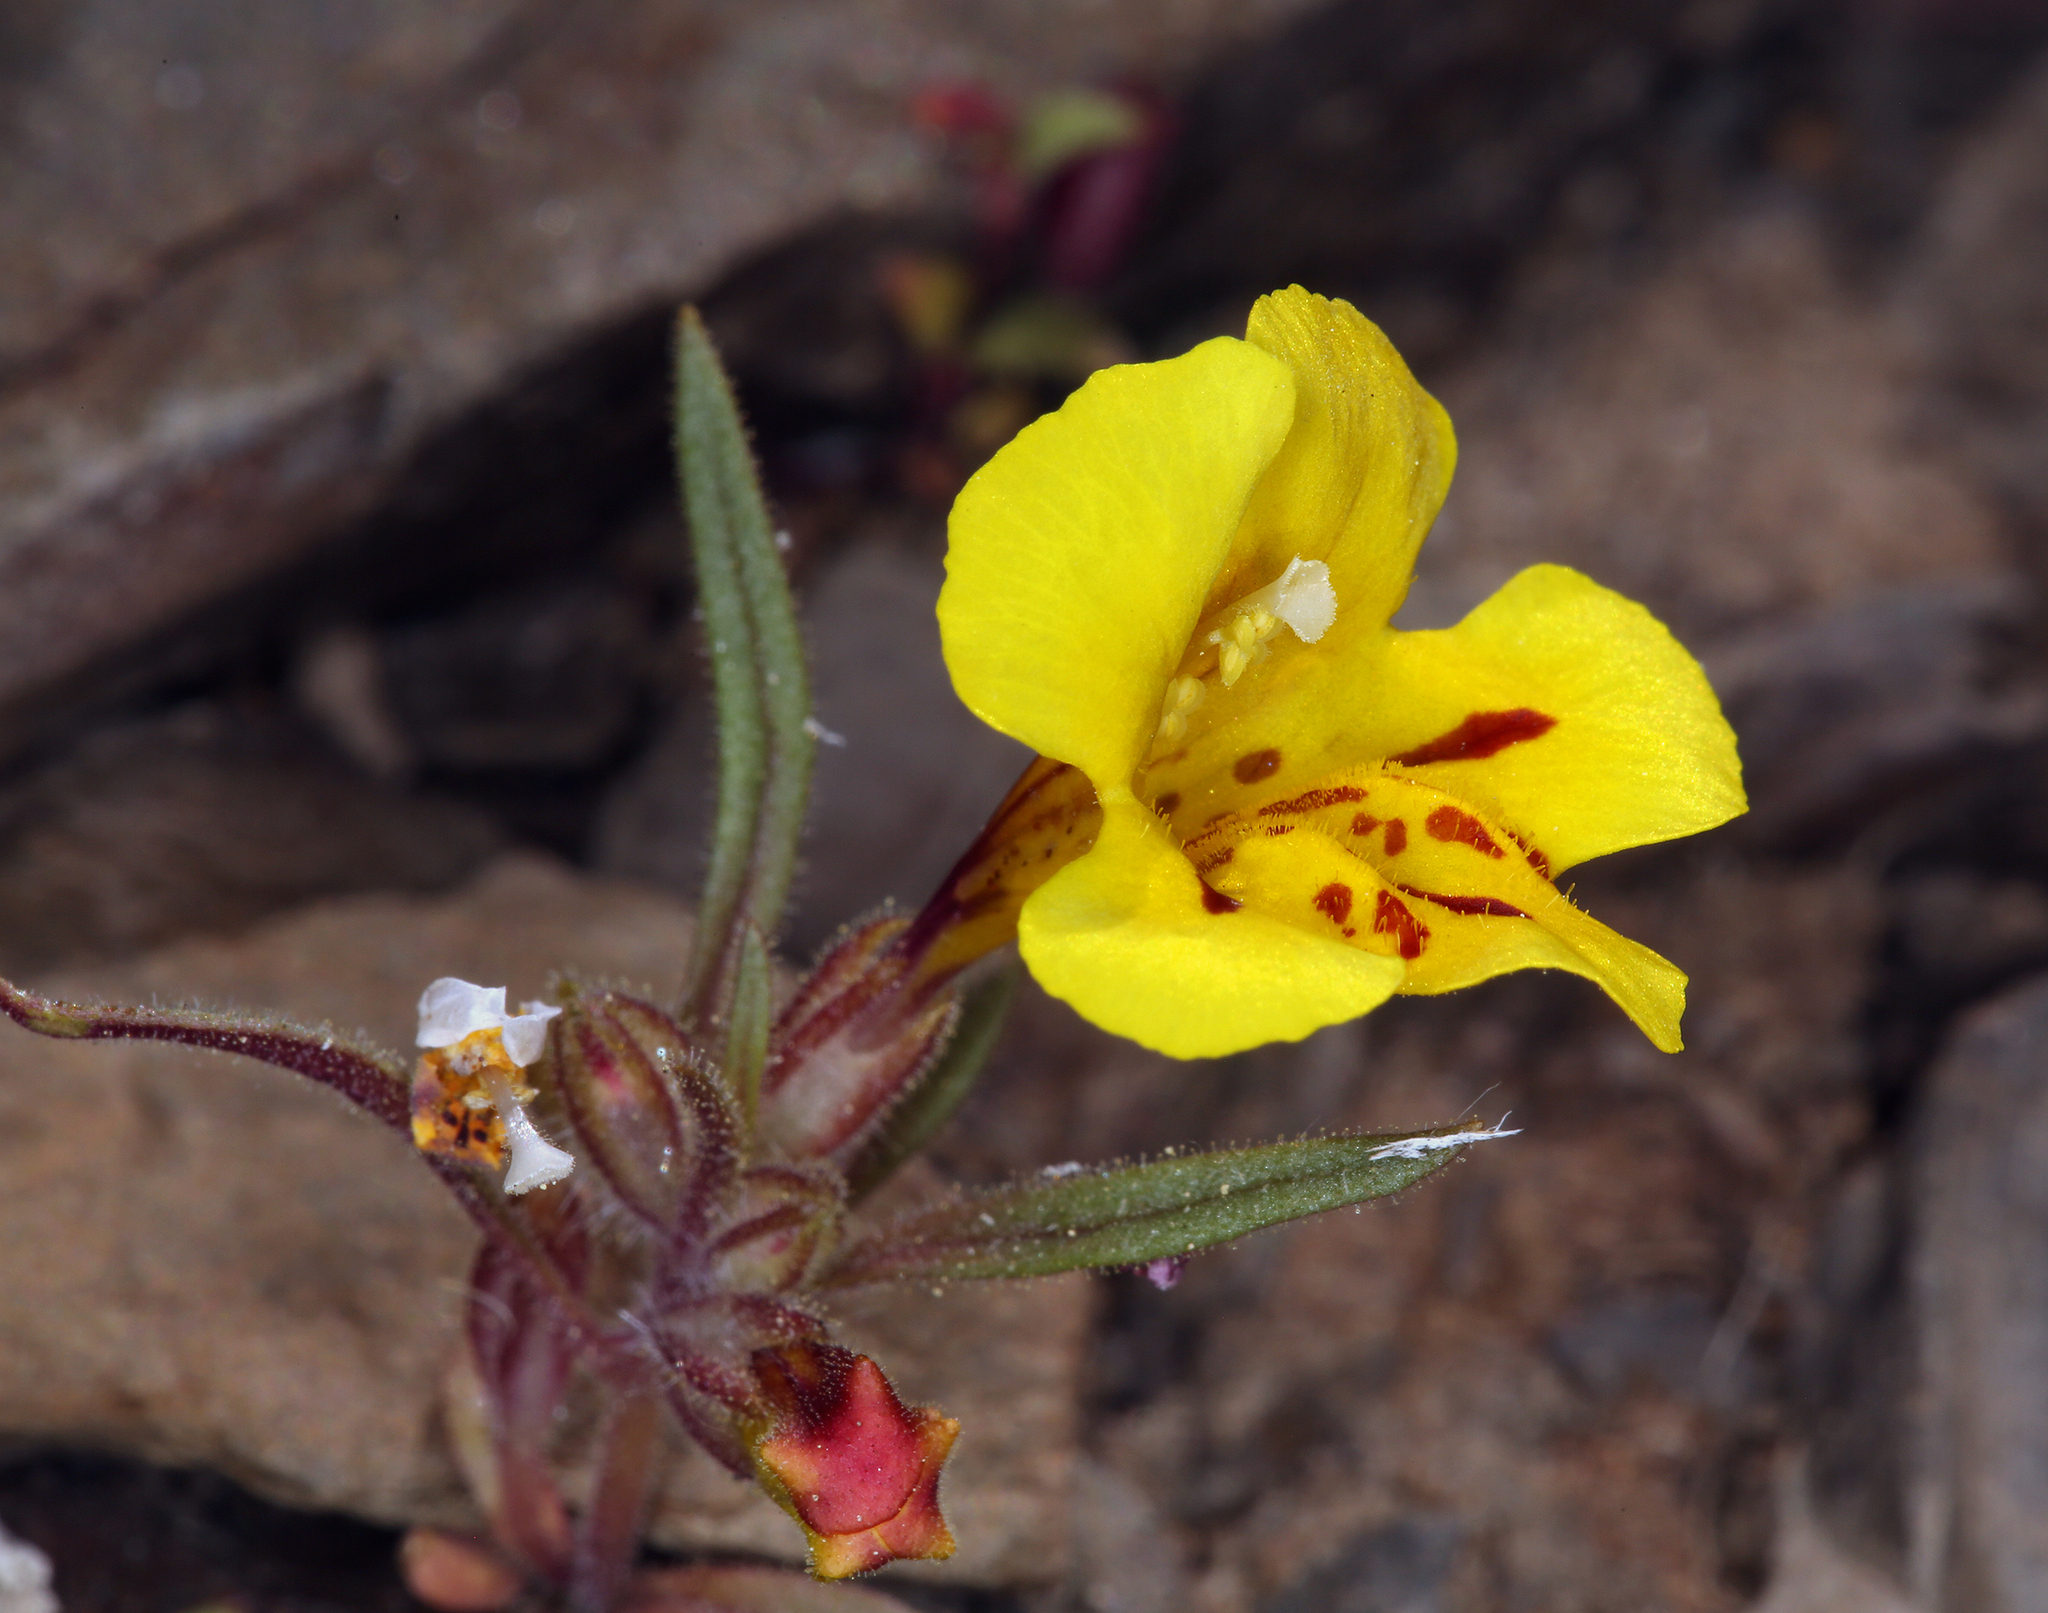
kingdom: Plantae
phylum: Tracheophyta
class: Magnoliopsida
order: Lamiales
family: Phrymaceae
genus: Diplacus
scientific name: Diplacus mephiticus
